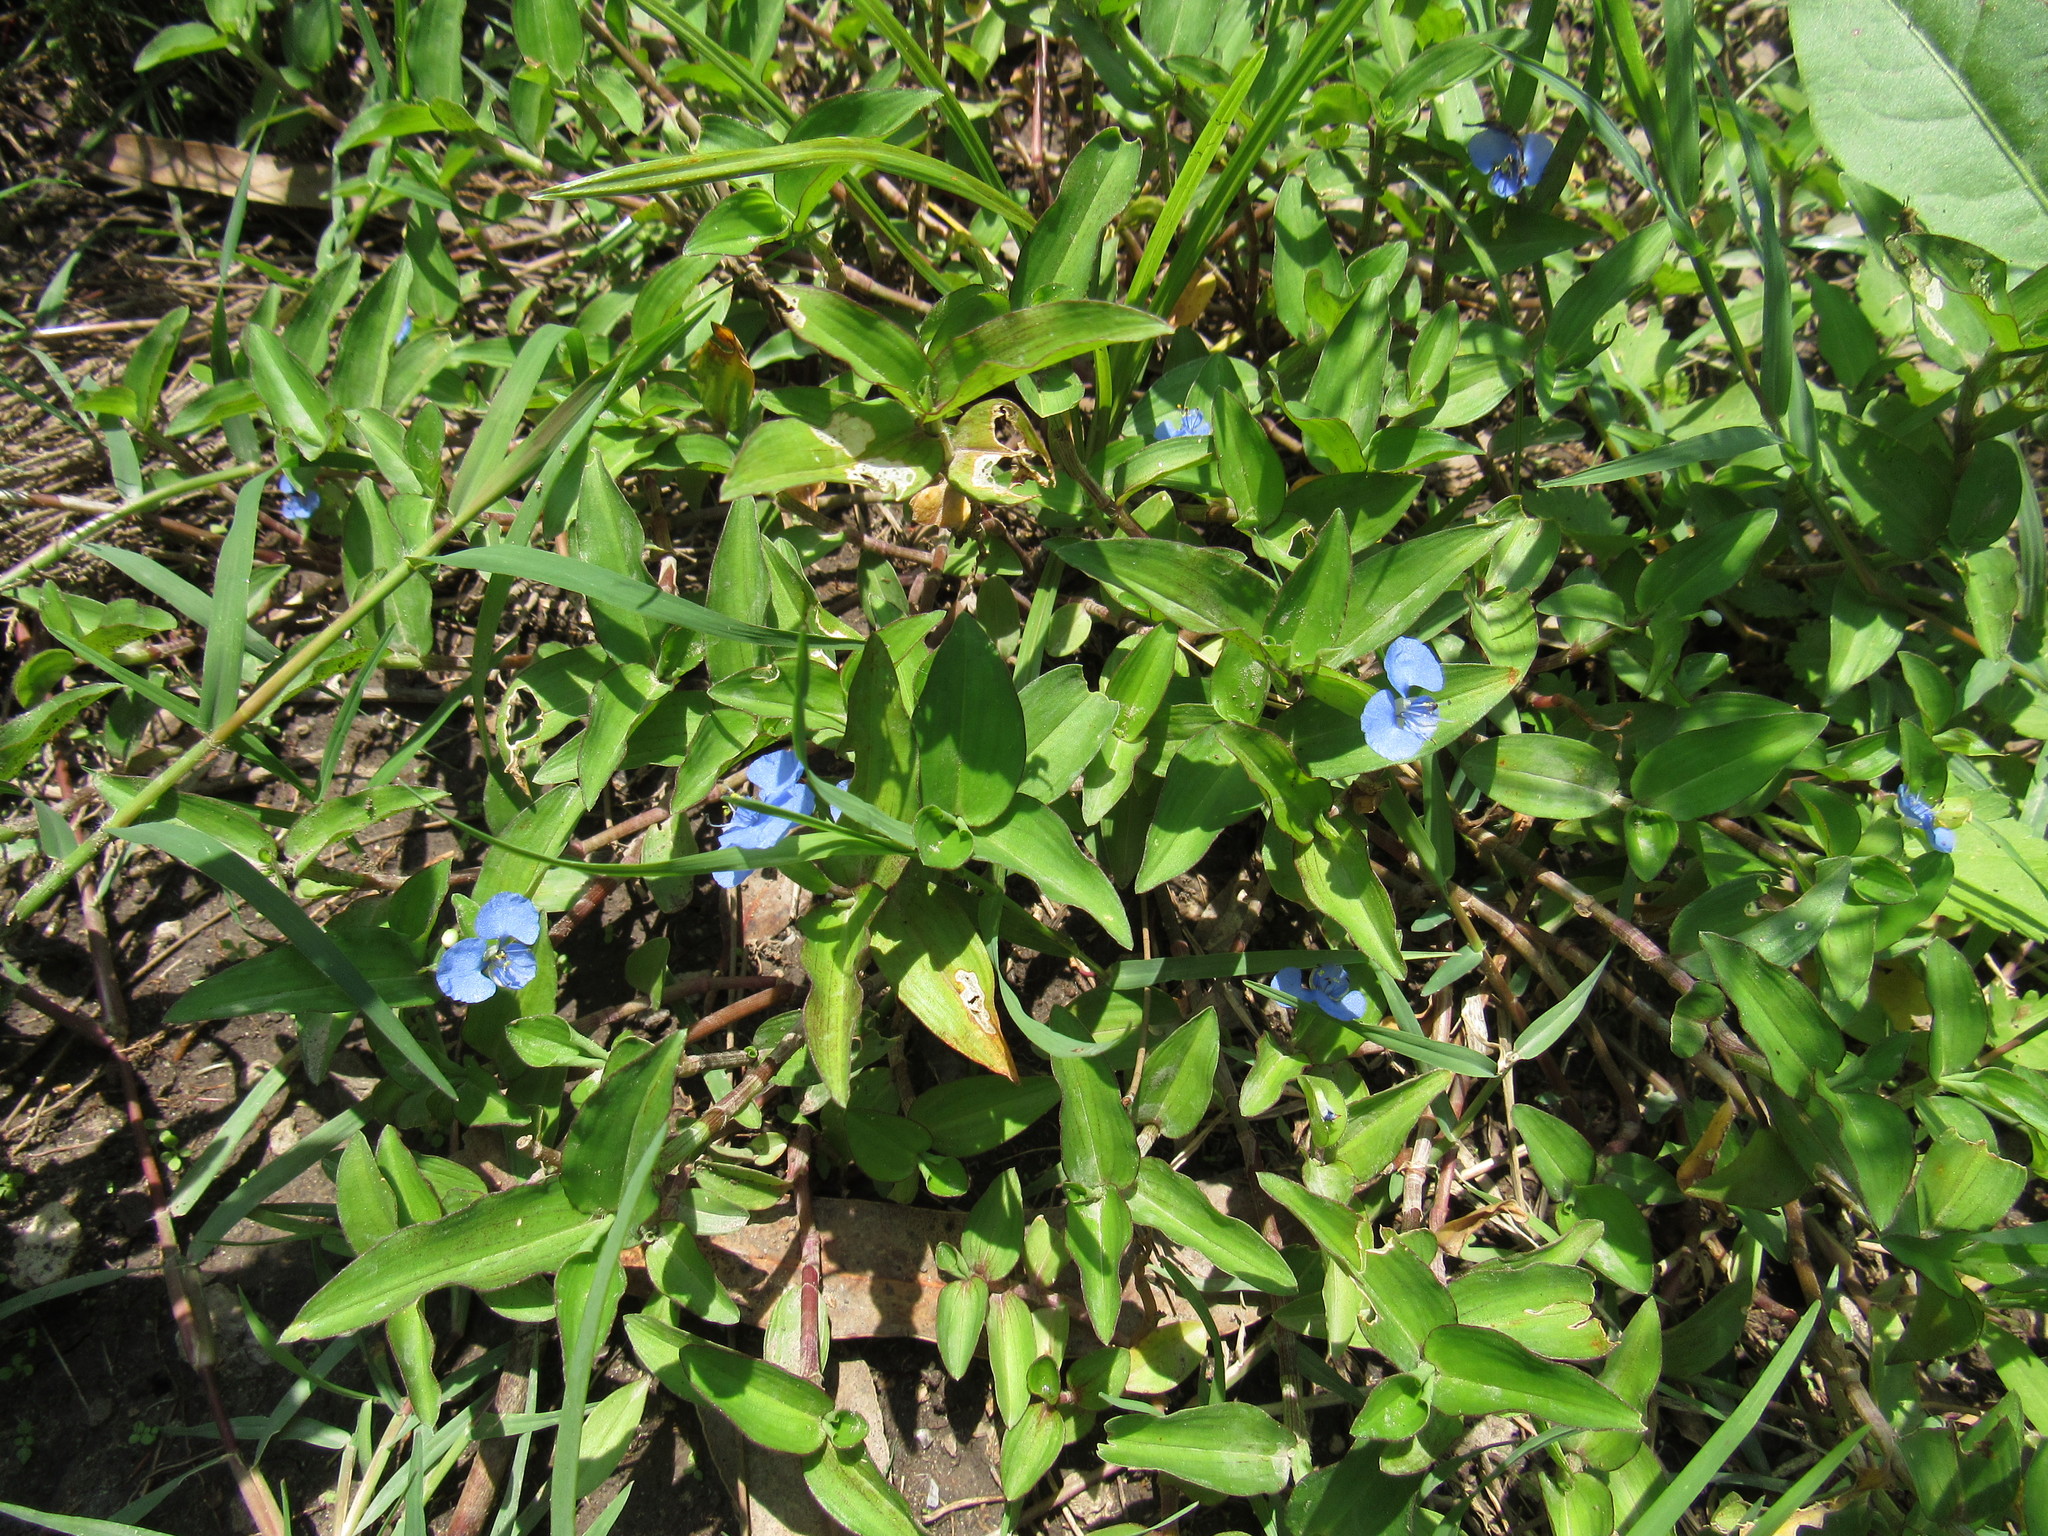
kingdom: Plantae
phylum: Tracheophyta
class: Liliopsida
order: Commelinales
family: Commelinaceae
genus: Commelina
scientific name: Commelina diffusa
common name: Climbing dayflower
